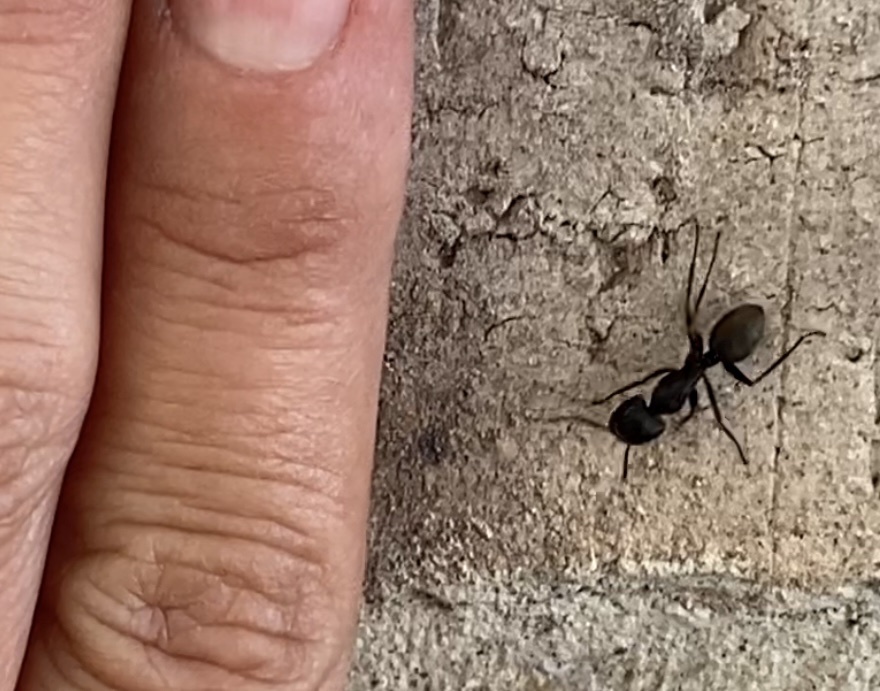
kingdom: Animalia
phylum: Arthropoda
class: Insecta
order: Hymenoptera
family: Formicidae
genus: Camponotus
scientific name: Camponotus pennsylvanicus
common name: Black carpenter ant
